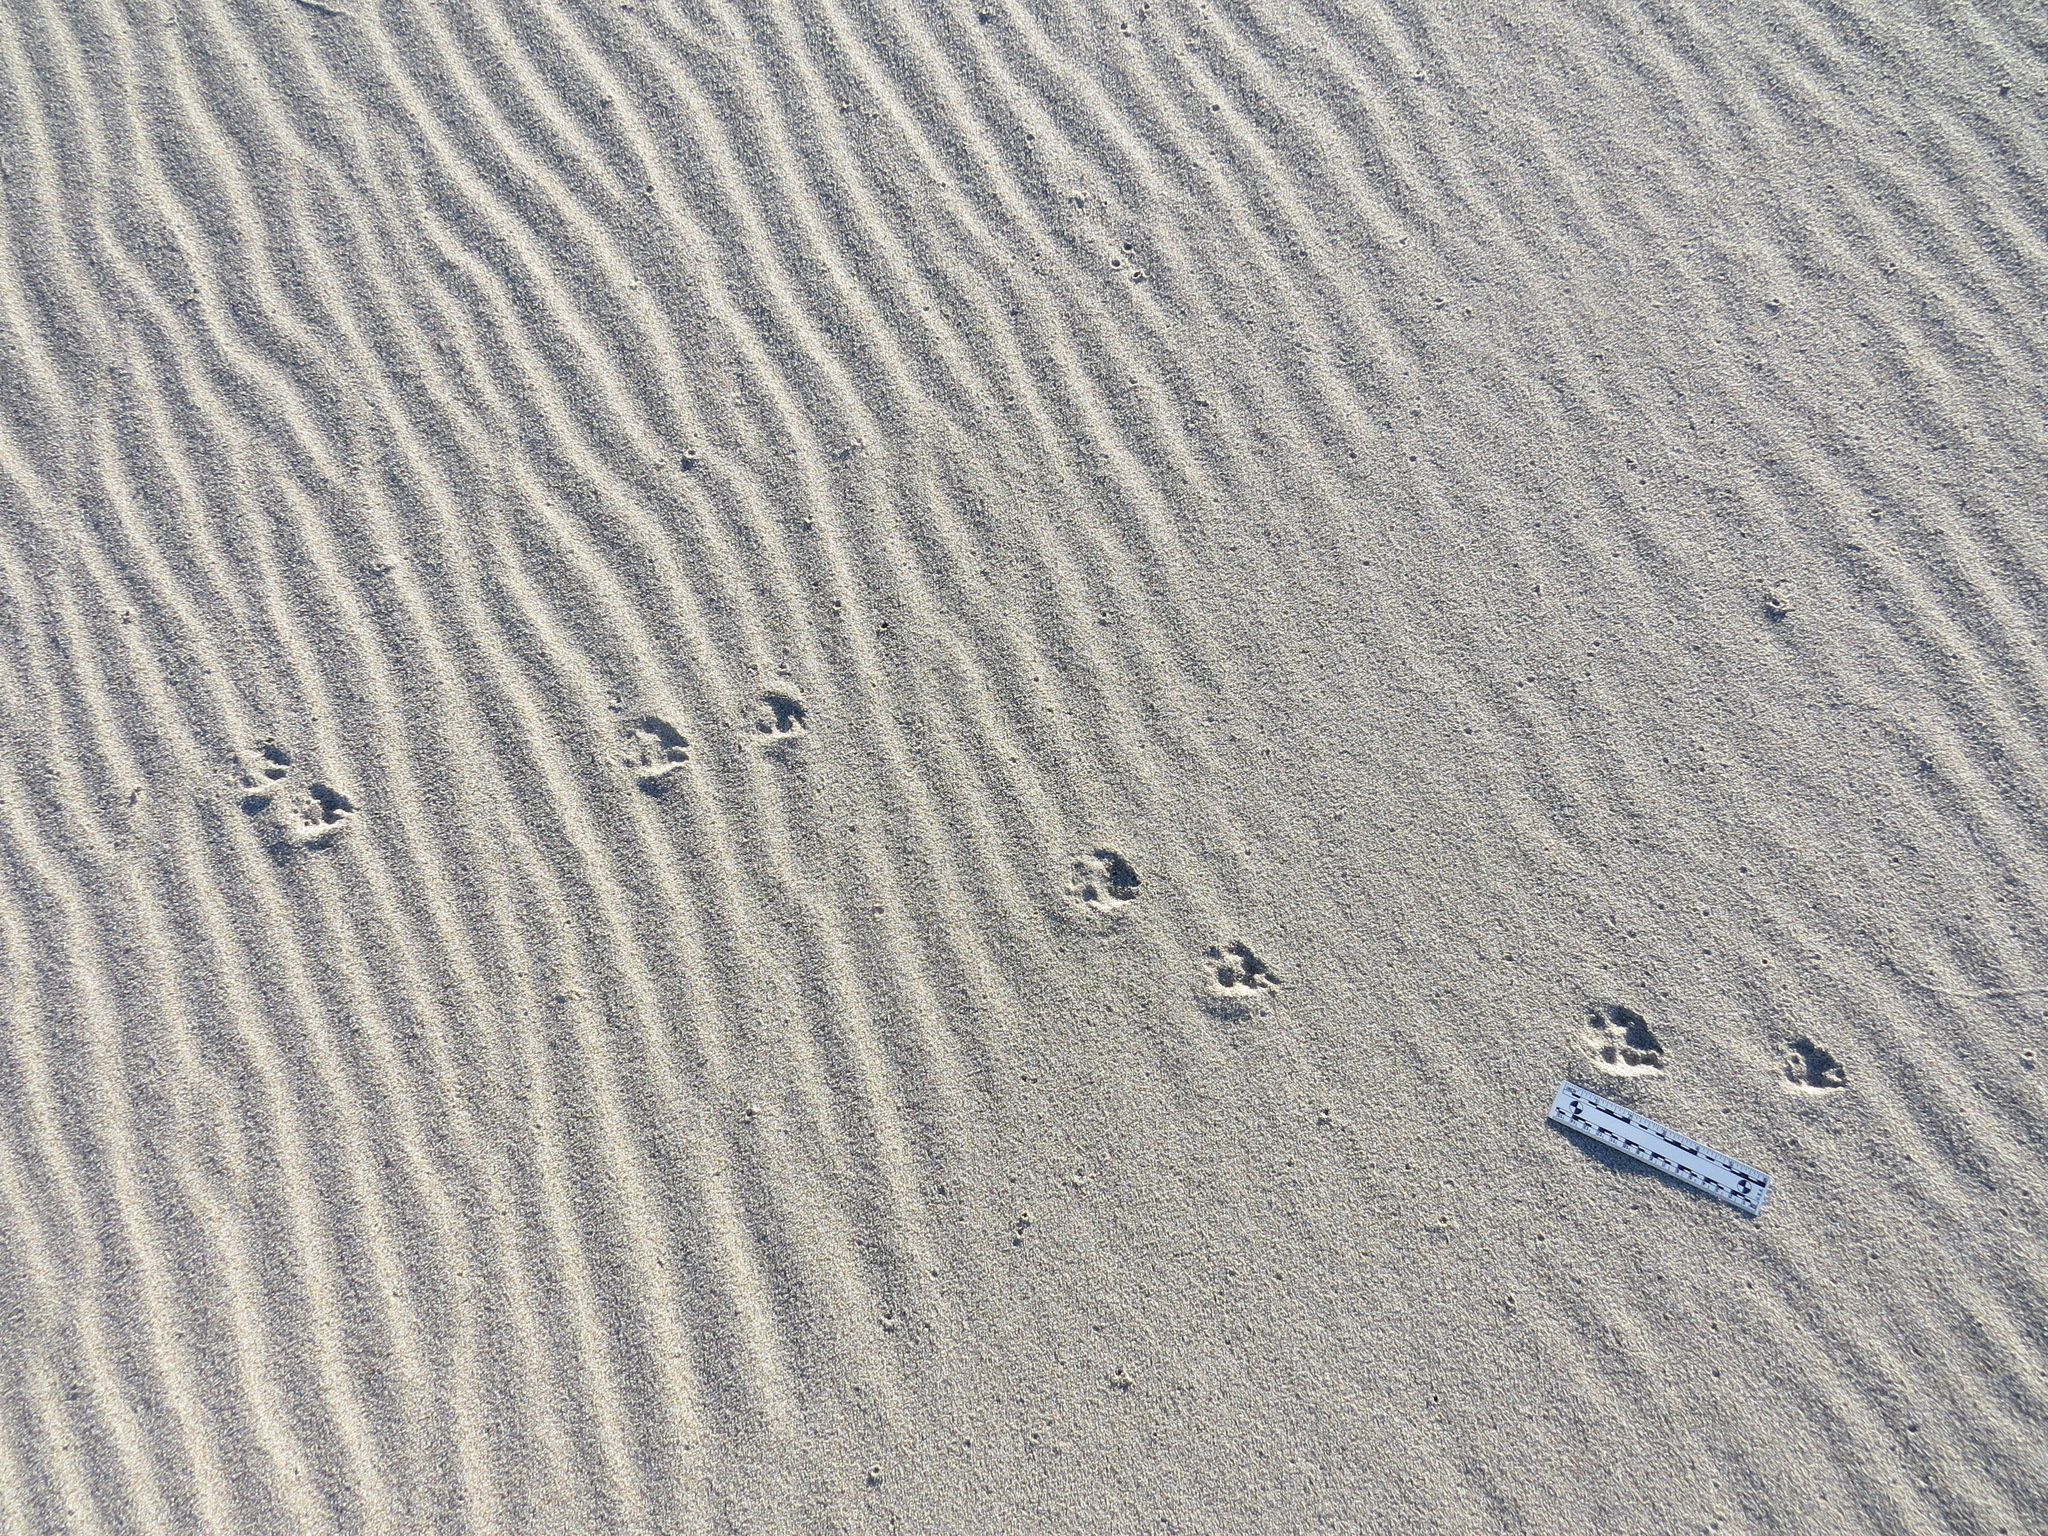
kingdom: Animalia
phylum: Chordata
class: Mammalia
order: Carnivora
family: Canidae
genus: Canis
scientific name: Canis latrans
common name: Coyote
